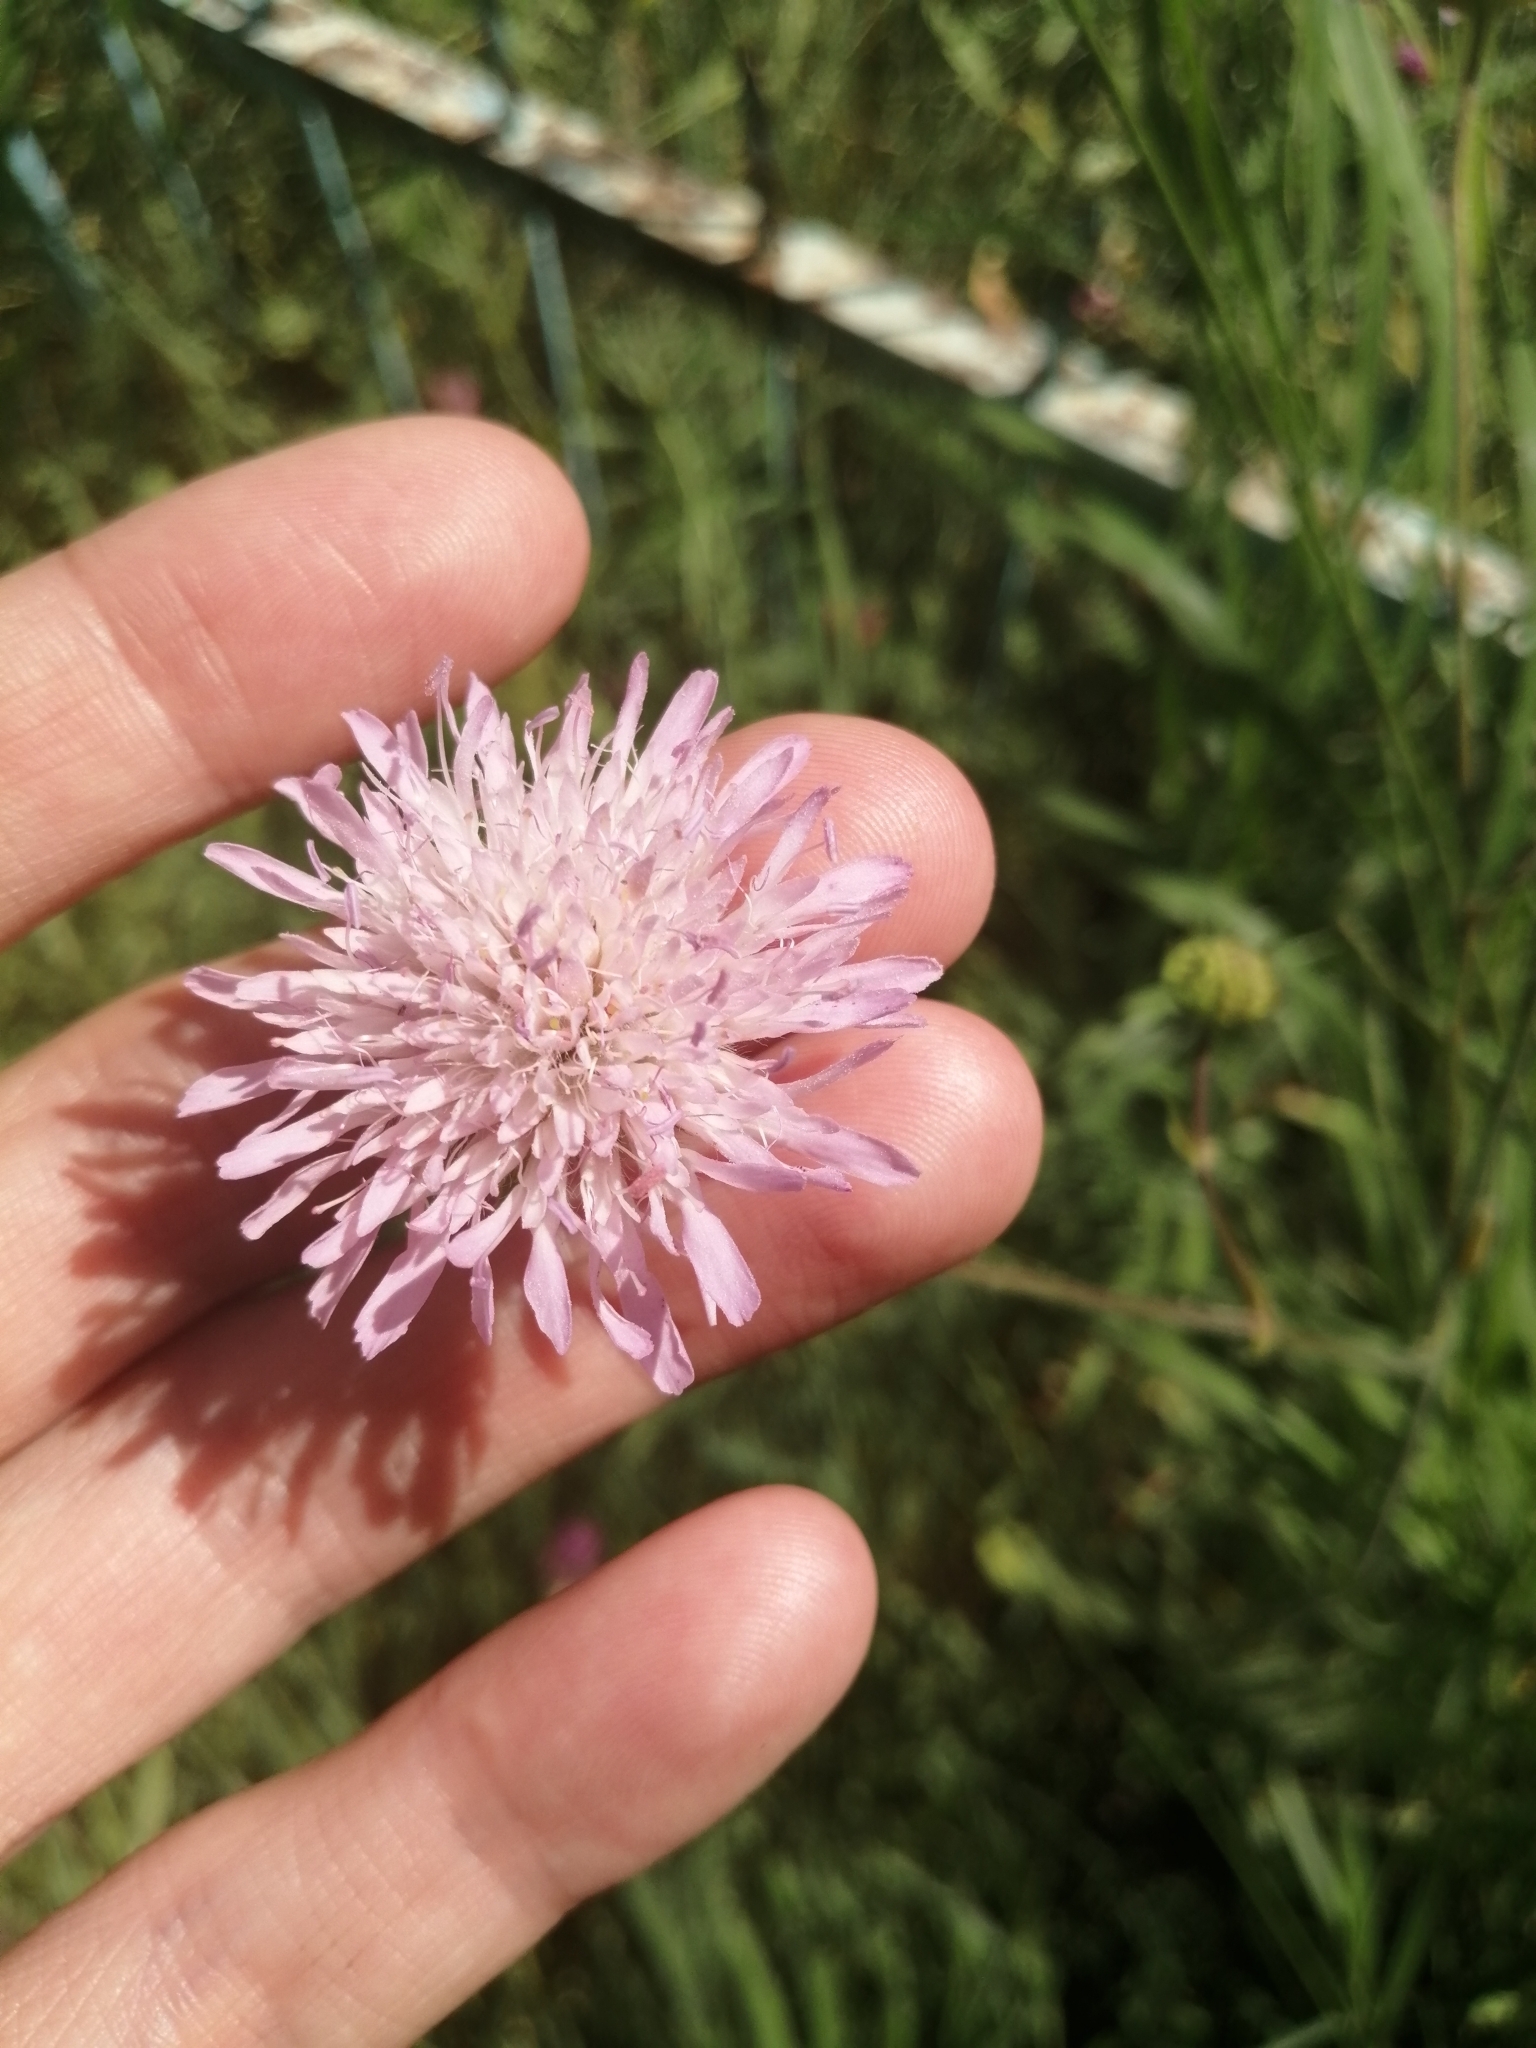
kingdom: Plantae
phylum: Tracheophyta
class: Magnoliopsida
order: Dipsacales
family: Caprifoliaceae
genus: Knautia
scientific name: Knautia arvensis
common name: Field scabiosa
